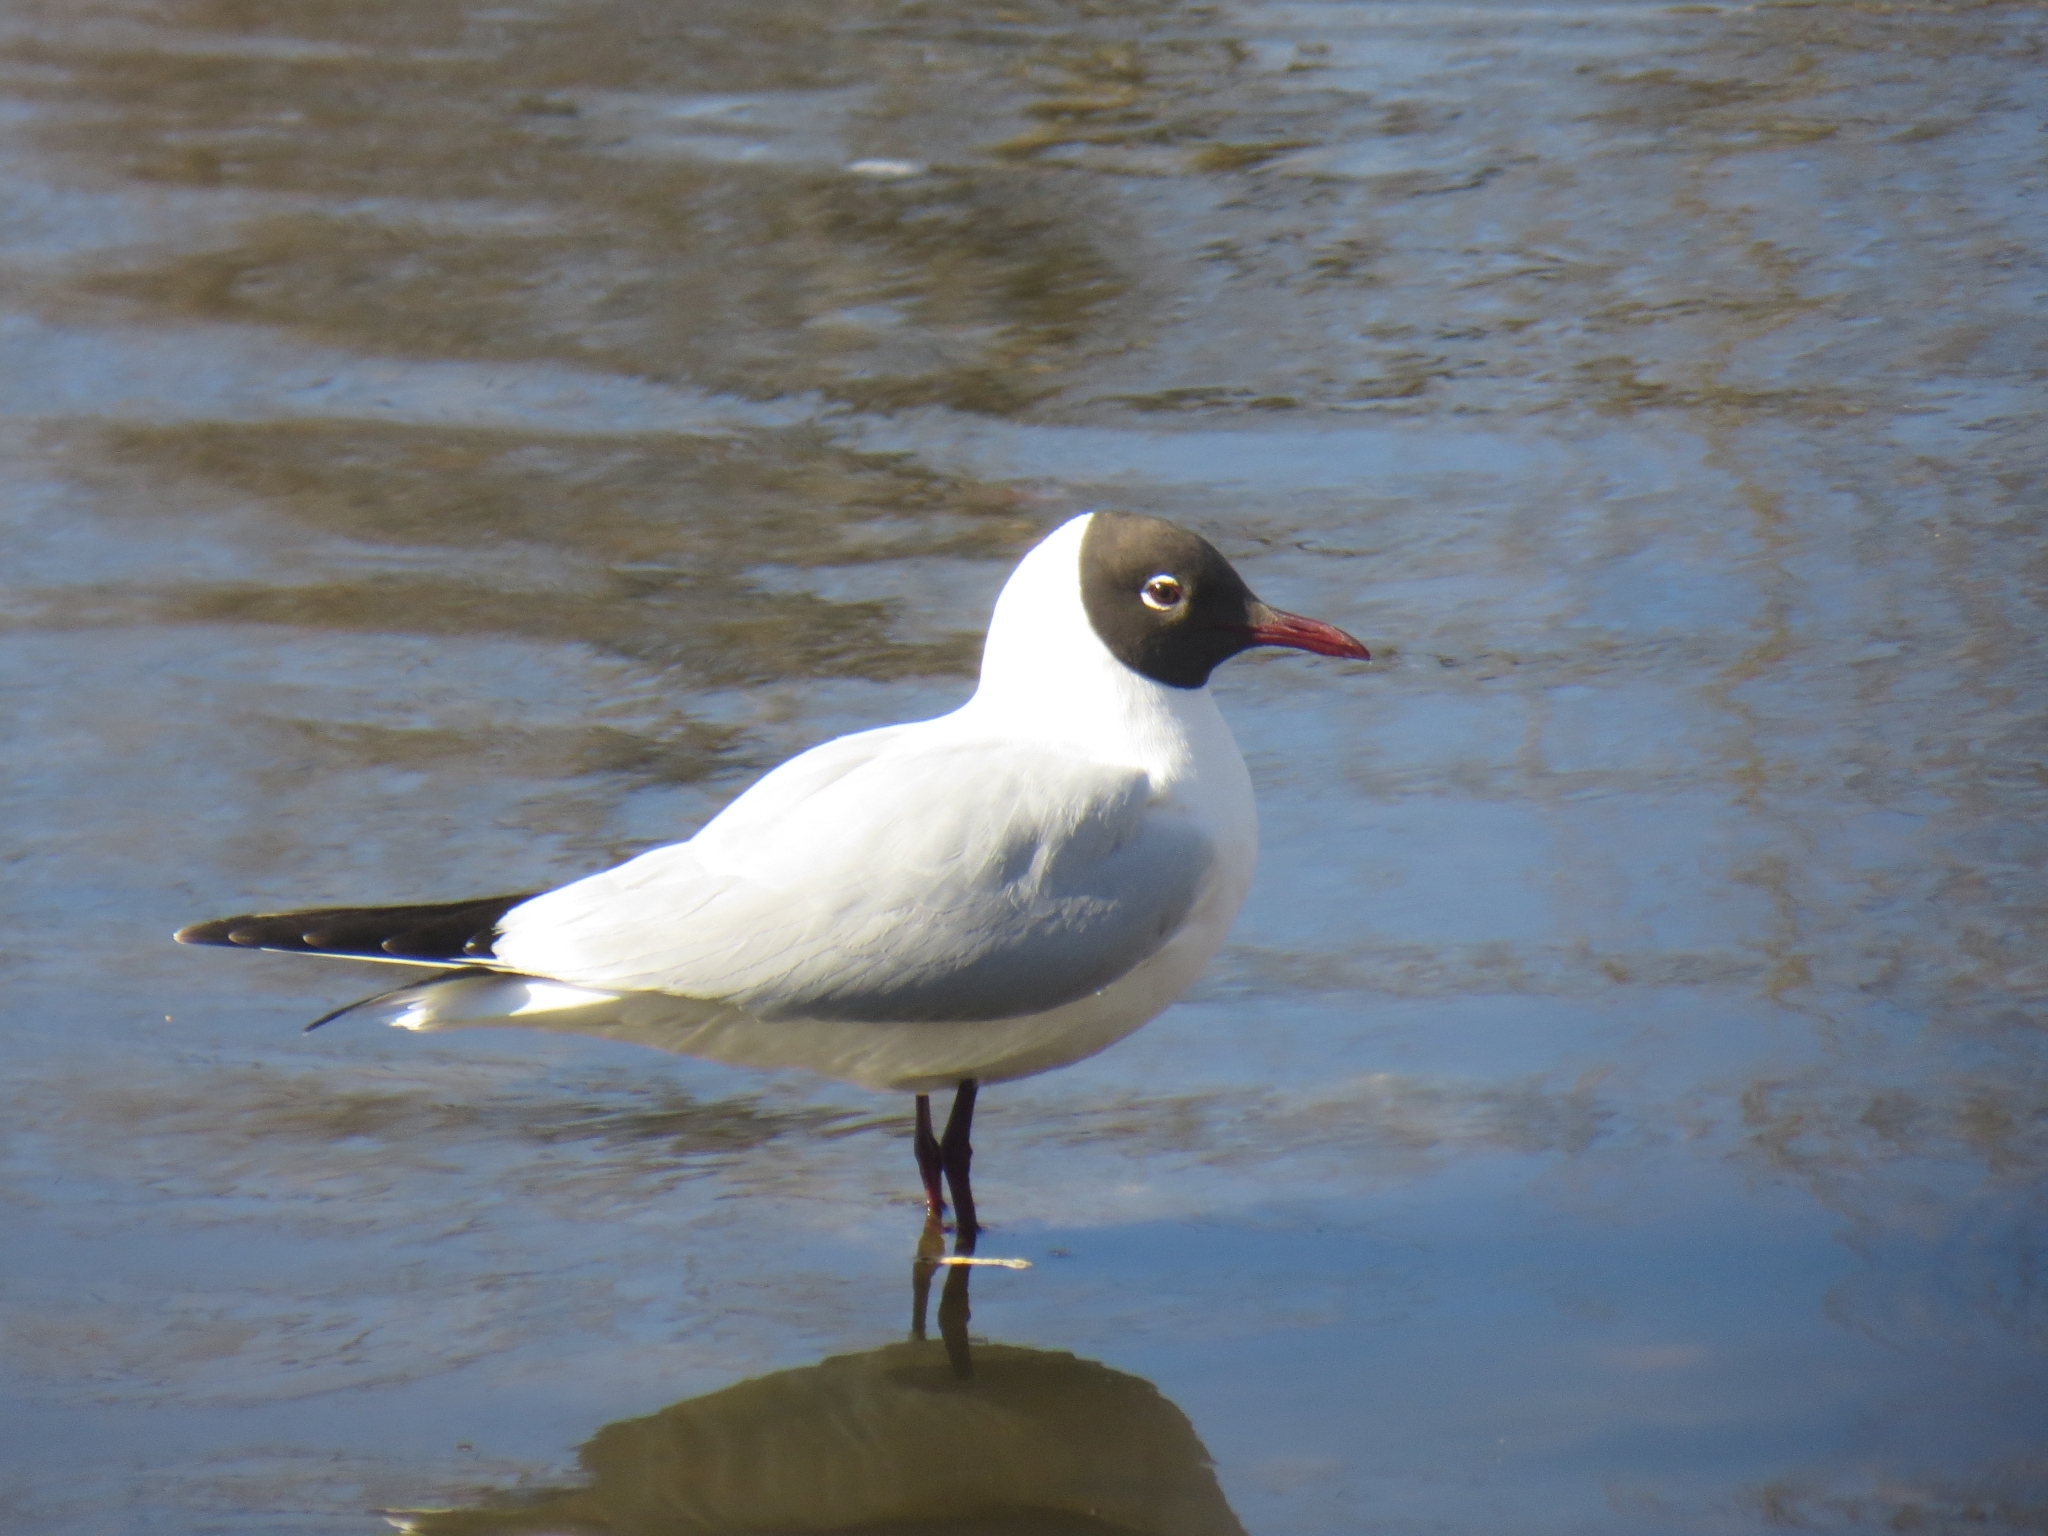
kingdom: Animalia
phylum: Chordata
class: Aves
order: Charadriiformes
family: Laridae
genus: Chroicocephalus
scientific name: Chroicocephalus ridibundus
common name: Black-headed gull
